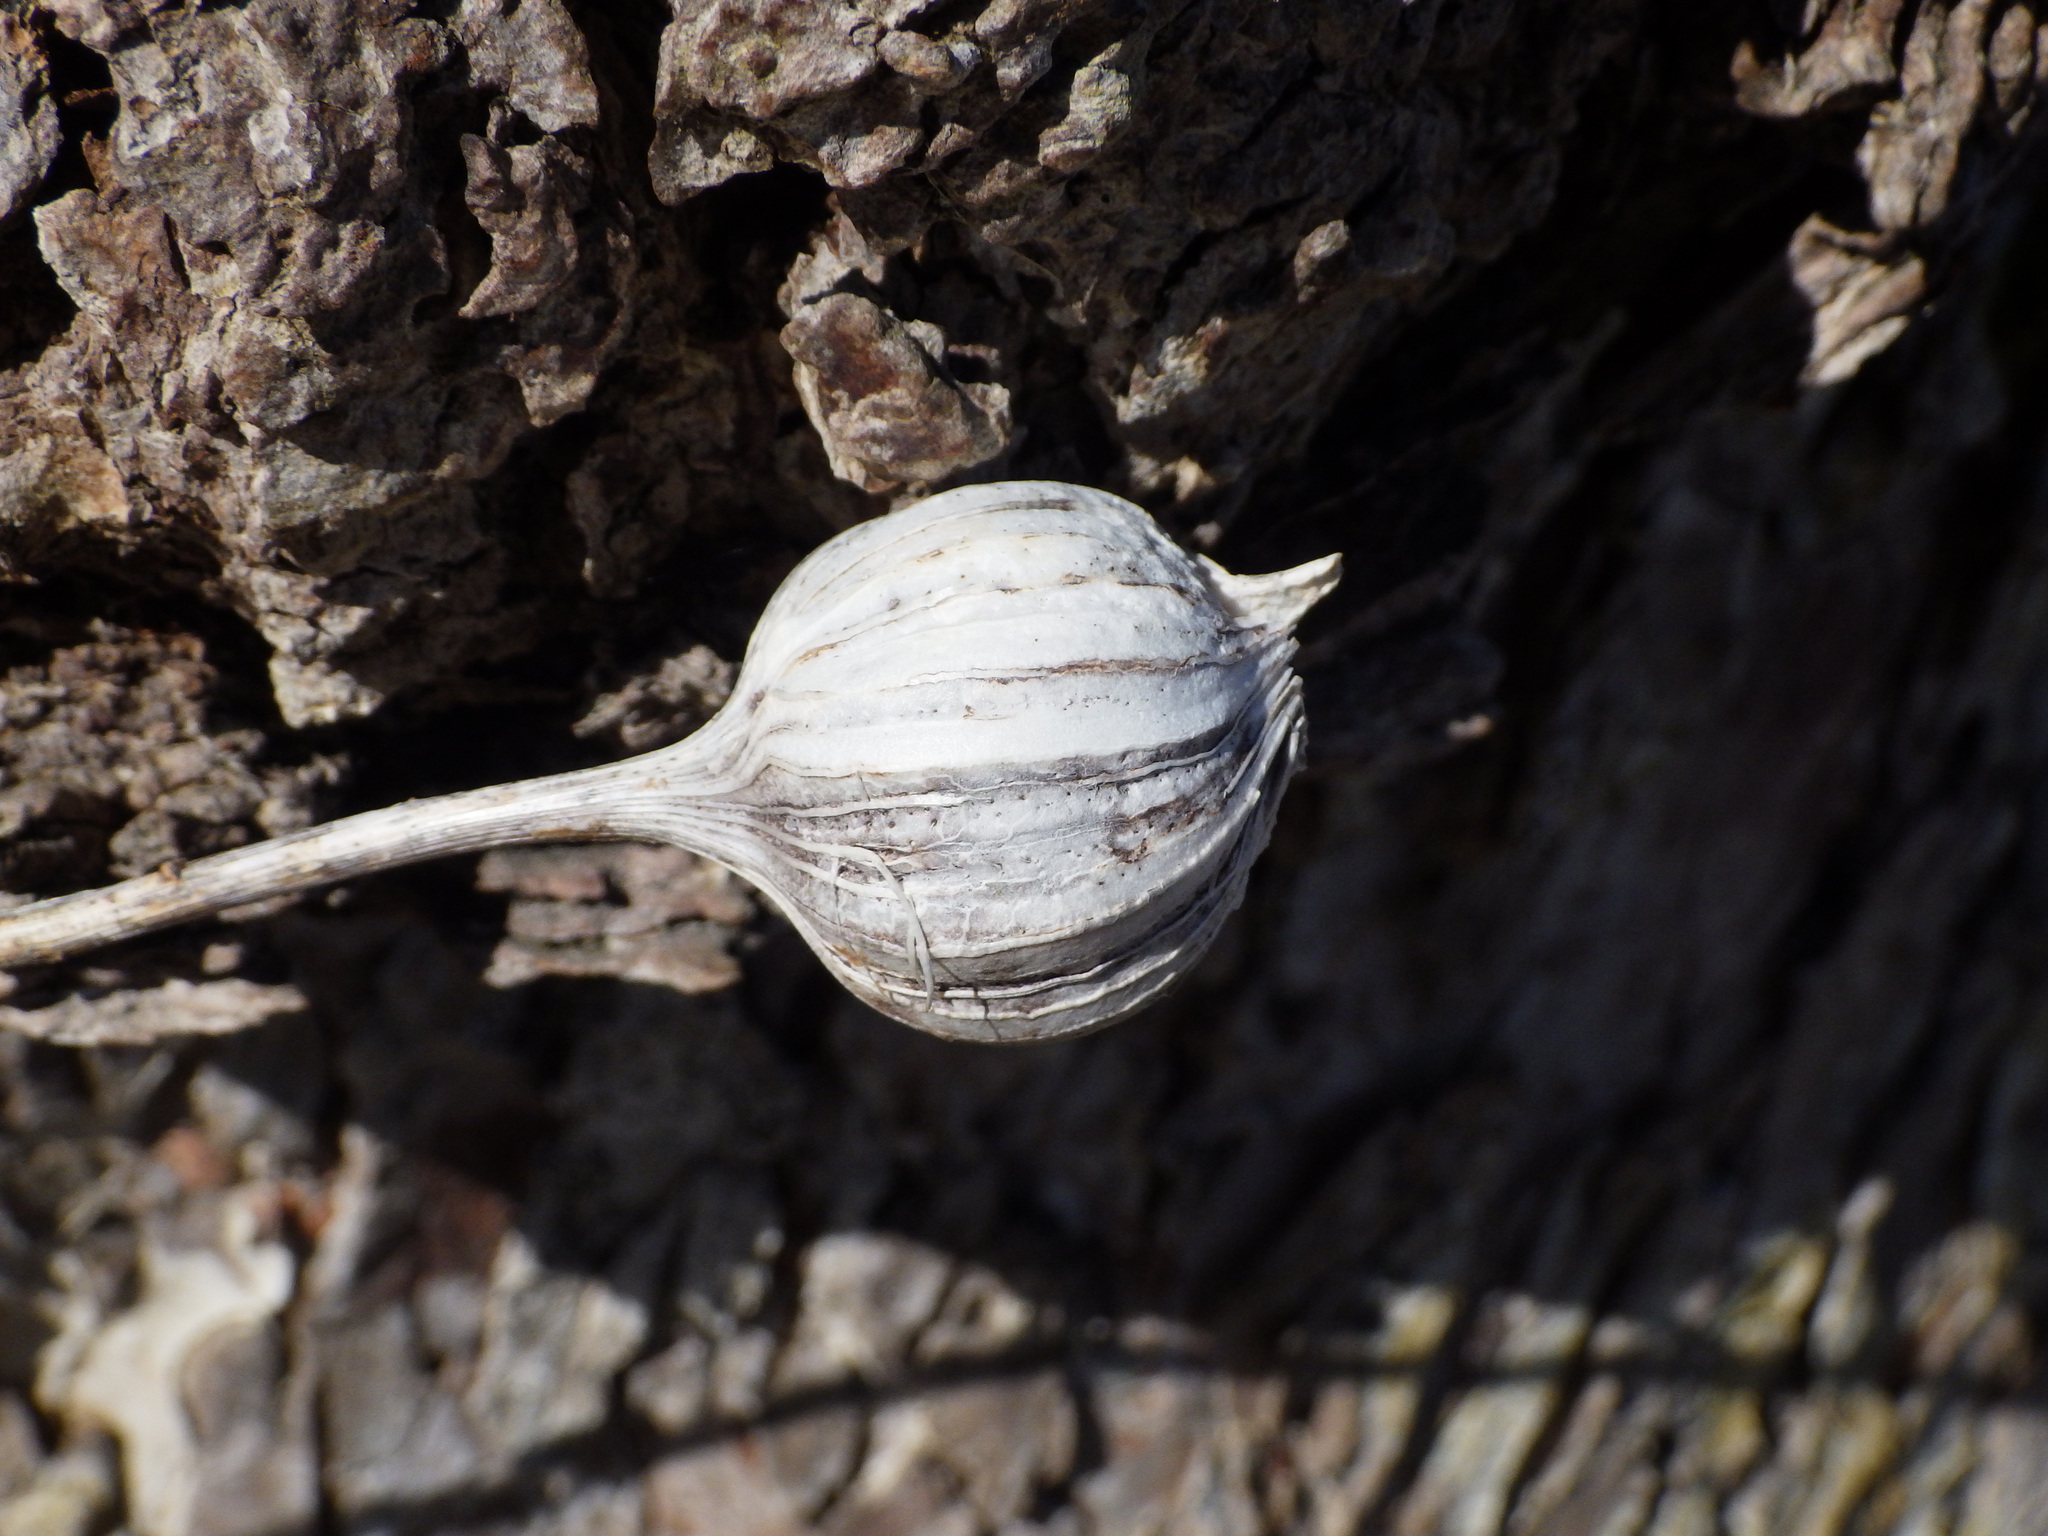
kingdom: Animalia
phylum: Arthropoda
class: Insecta
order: Diptera
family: Tephritidae
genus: Eurosta
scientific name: Eurosta solidaginis
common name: Goldenrod gall fly
